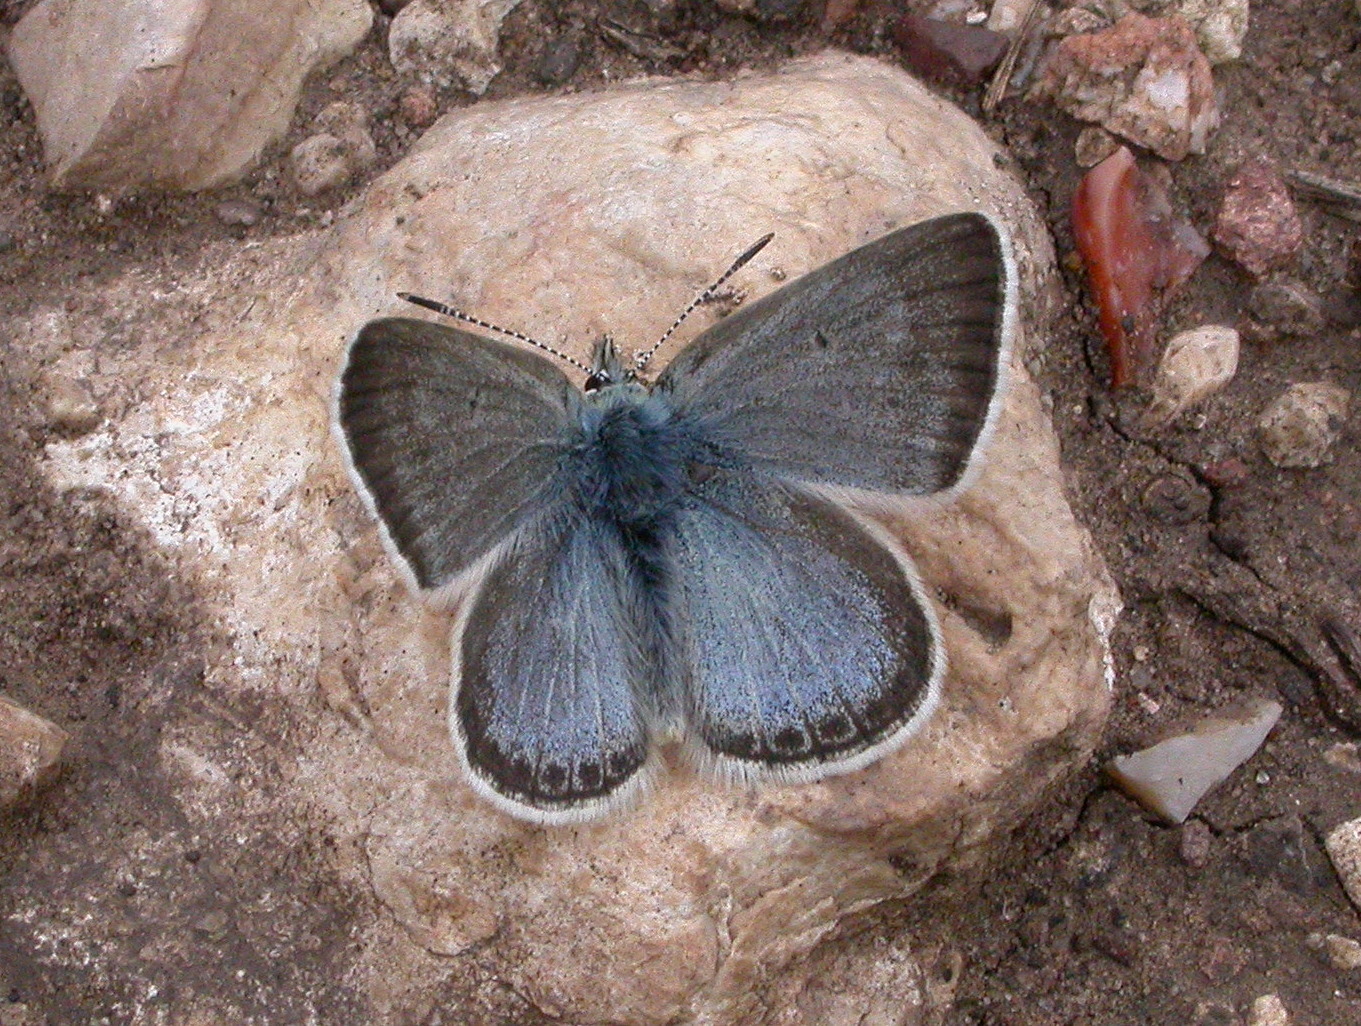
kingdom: Animalia
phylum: Arthropoda
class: Insecta
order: Lepidoptera
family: Lycaenidae
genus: Agriades
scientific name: Agriades glandon
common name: Glandon blue
